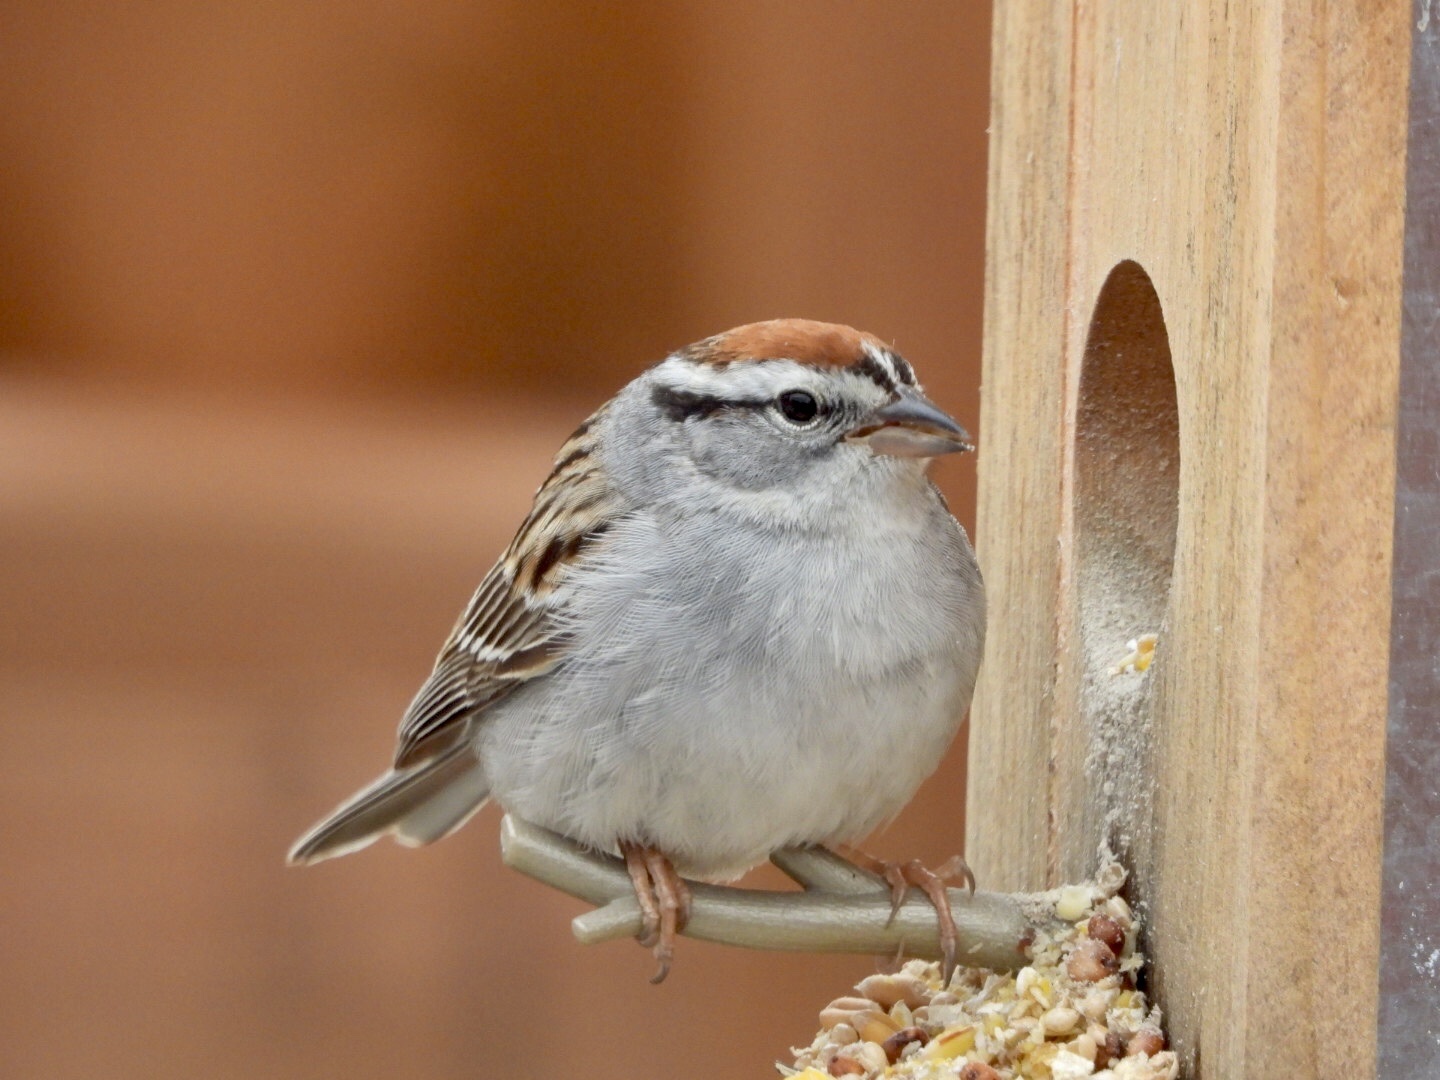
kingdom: Animalia
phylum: Chordata
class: Aves
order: Passeriformes
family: Passerellidae
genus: Spizella
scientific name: Spizella passerina
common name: Chipping sparrow
